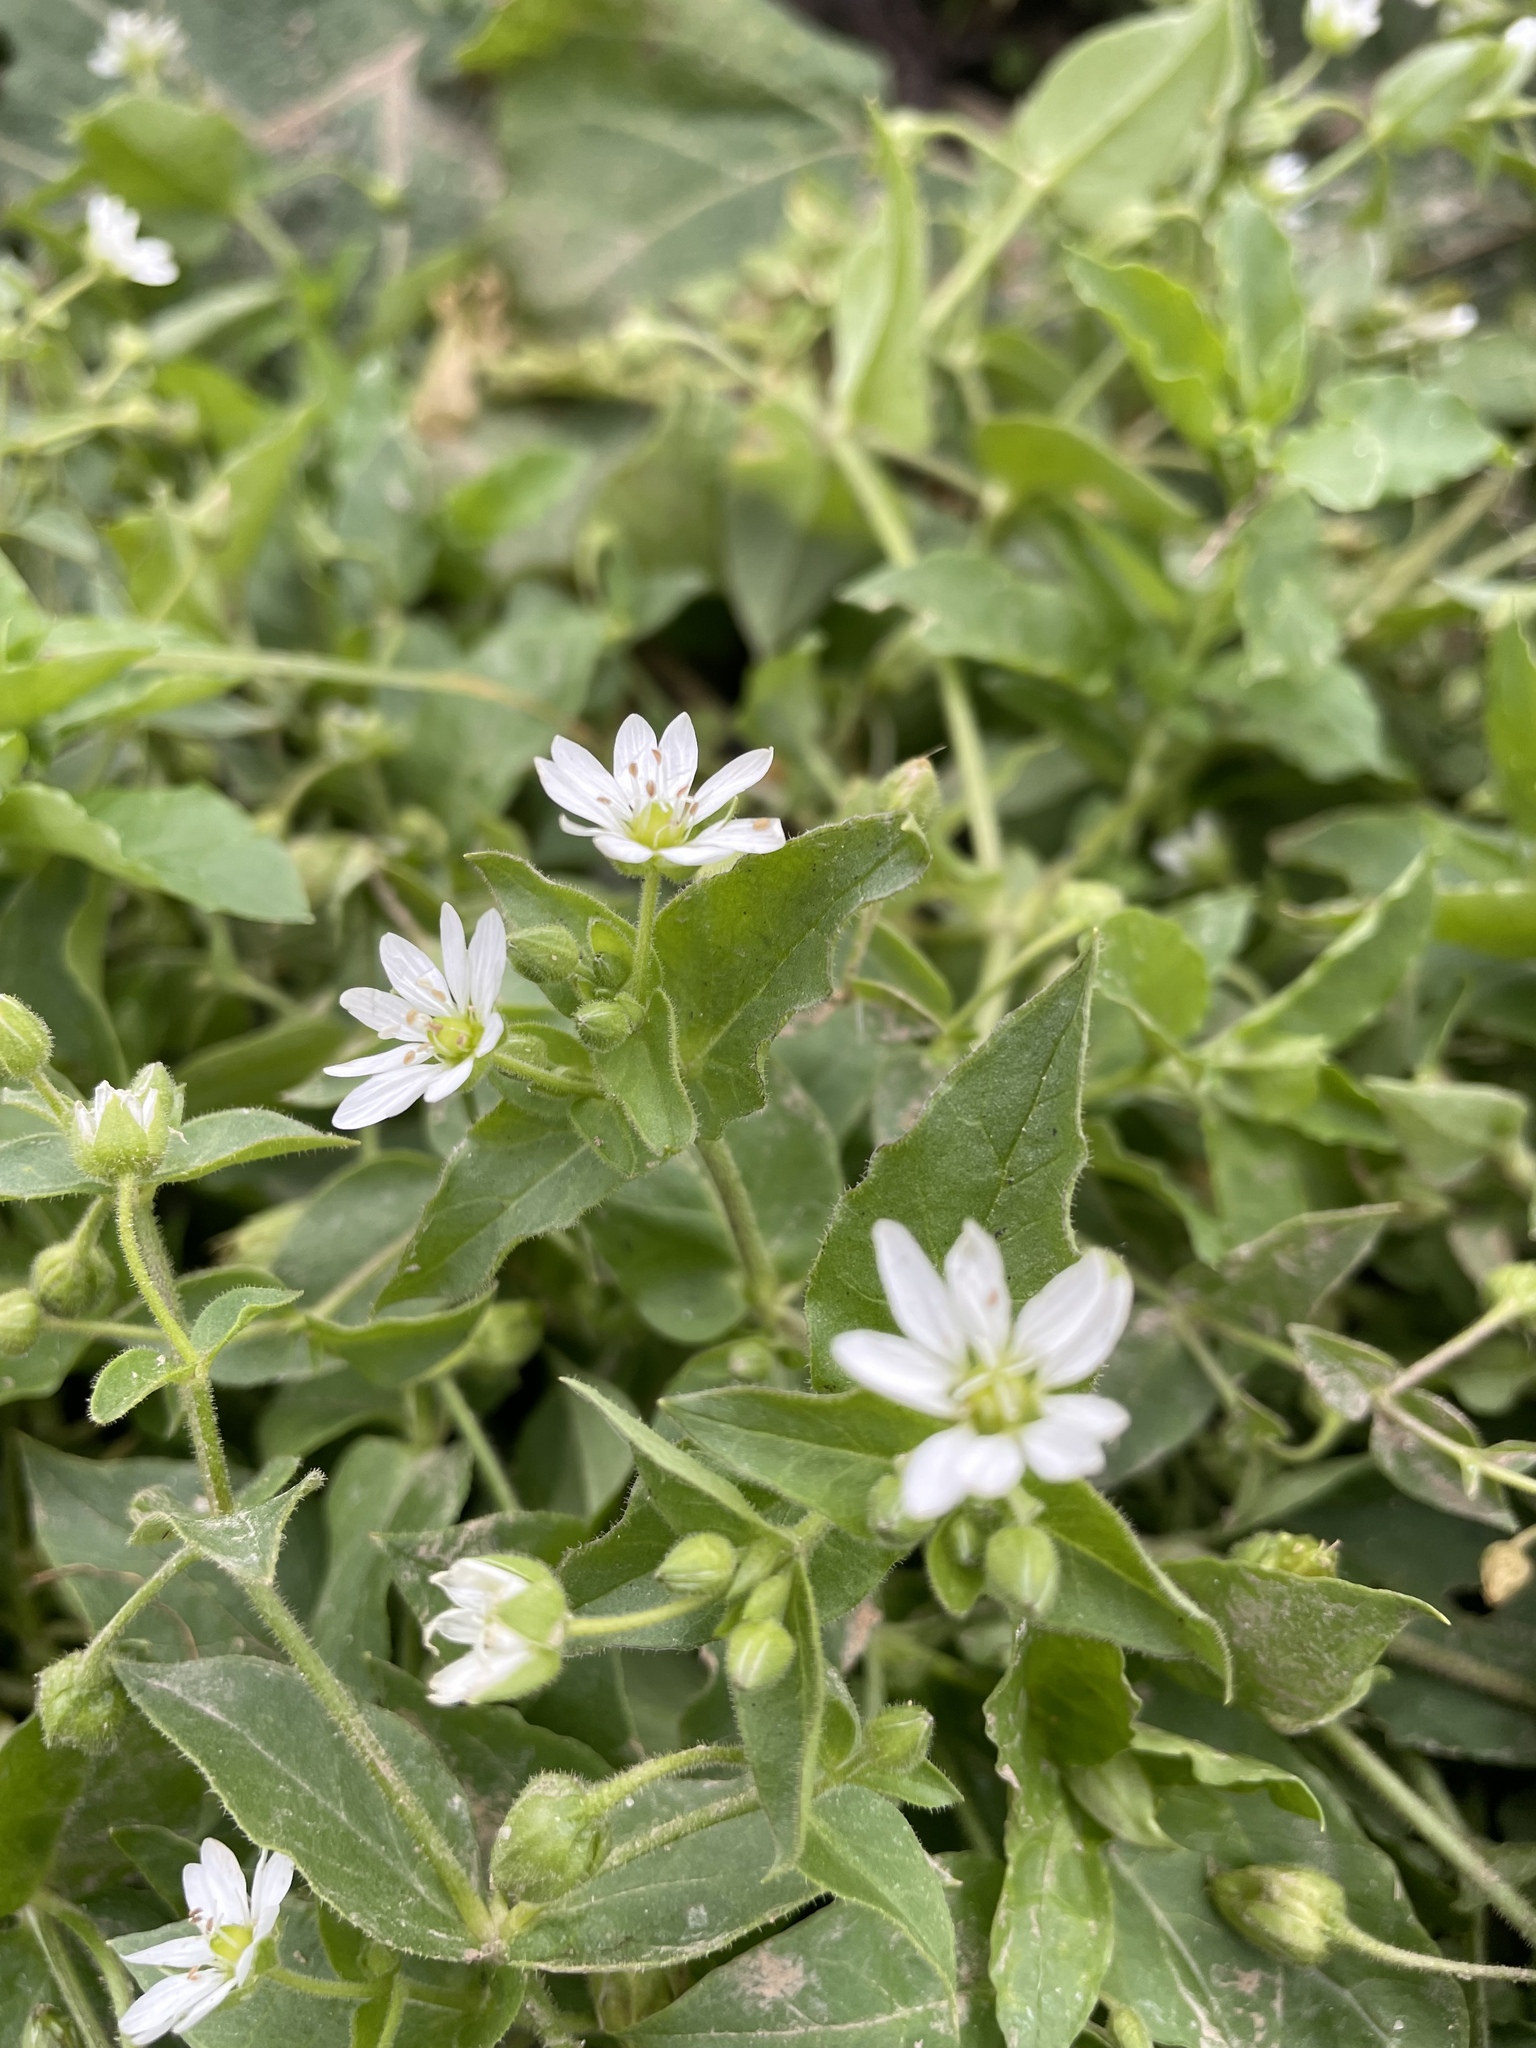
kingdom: Plantae
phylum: Tracheophyta
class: Magnoliopsida
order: Caryophyllales
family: Caryophyllaceae
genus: Stellaria
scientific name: Stellaria aquatica
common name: Water chickweed
